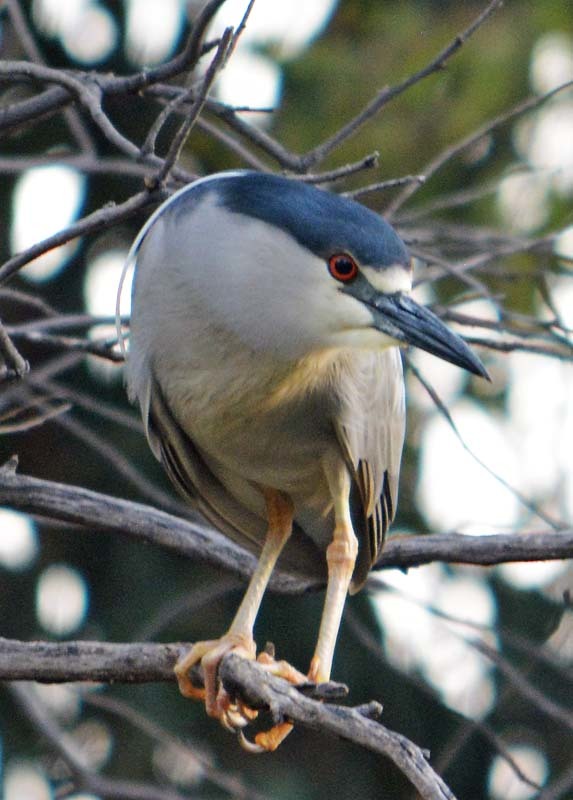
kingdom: Animalia
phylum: Chordata
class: Aves
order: Pelecaniformes
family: Ardeidae
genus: Nycticorax
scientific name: Nycticorax nycticorax
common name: Black-crowned night heron
